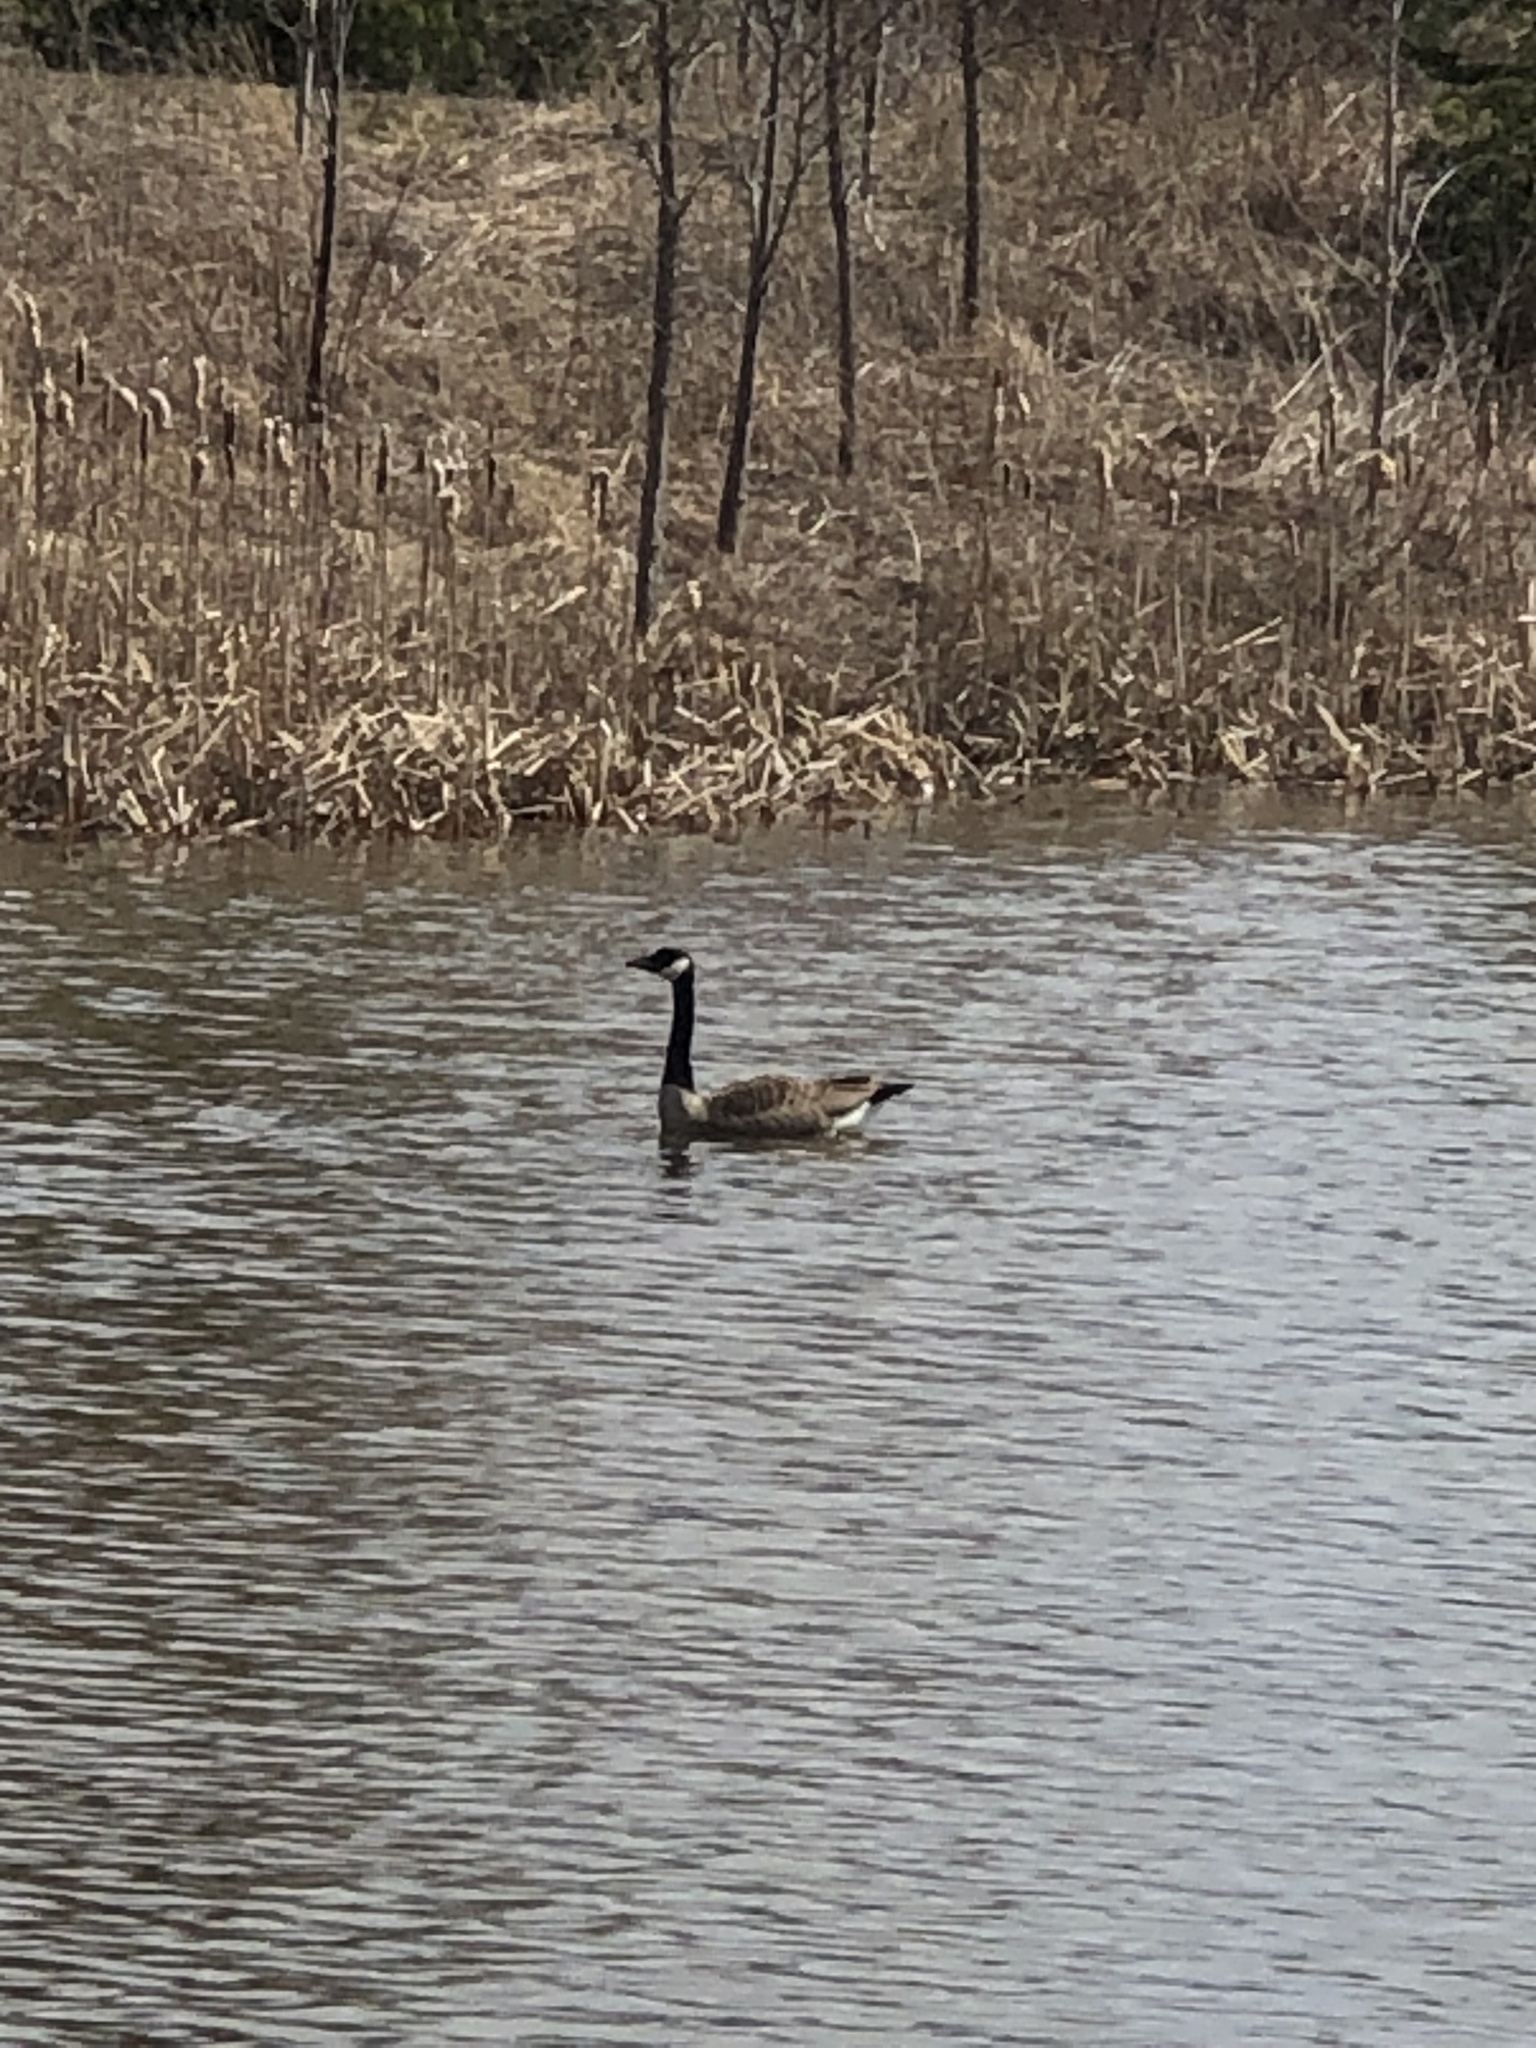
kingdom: Animalia
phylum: Chordata
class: Aves
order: Anseriformes
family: Anatidae
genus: Branta
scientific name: Branta canadensis
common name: Canada goose
